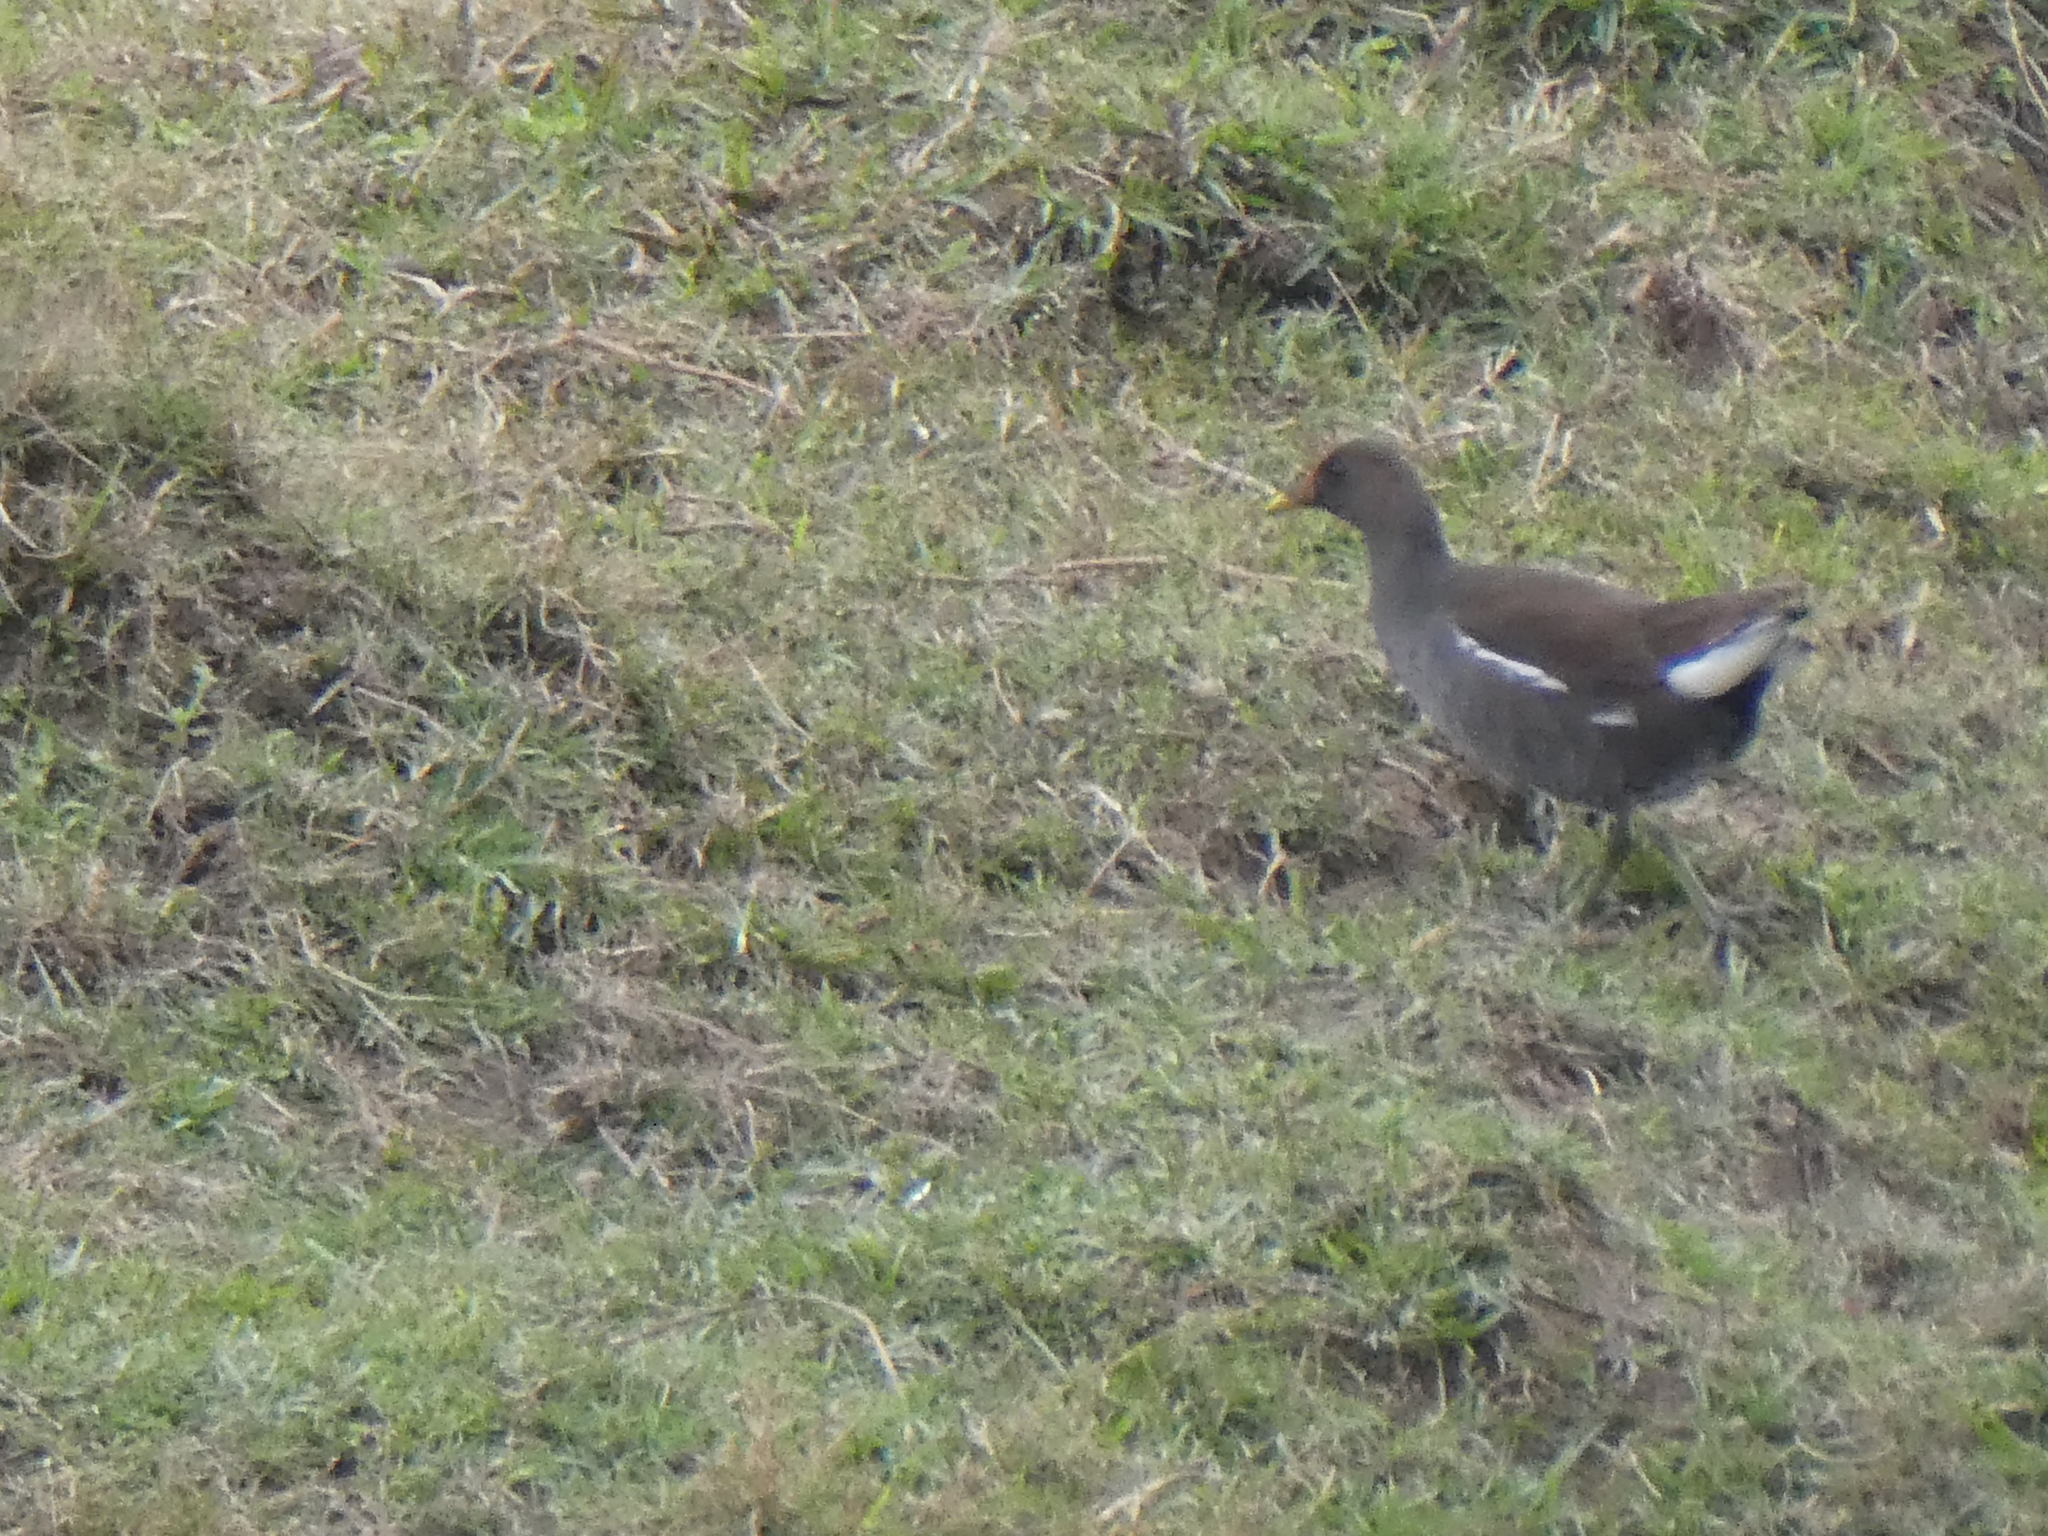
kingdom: Animalia
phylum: Chordata
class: Aves
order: Gruiformes
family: Rallidae
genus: Gallinula
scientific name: Gallinula chloropus
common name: Common moorhen
